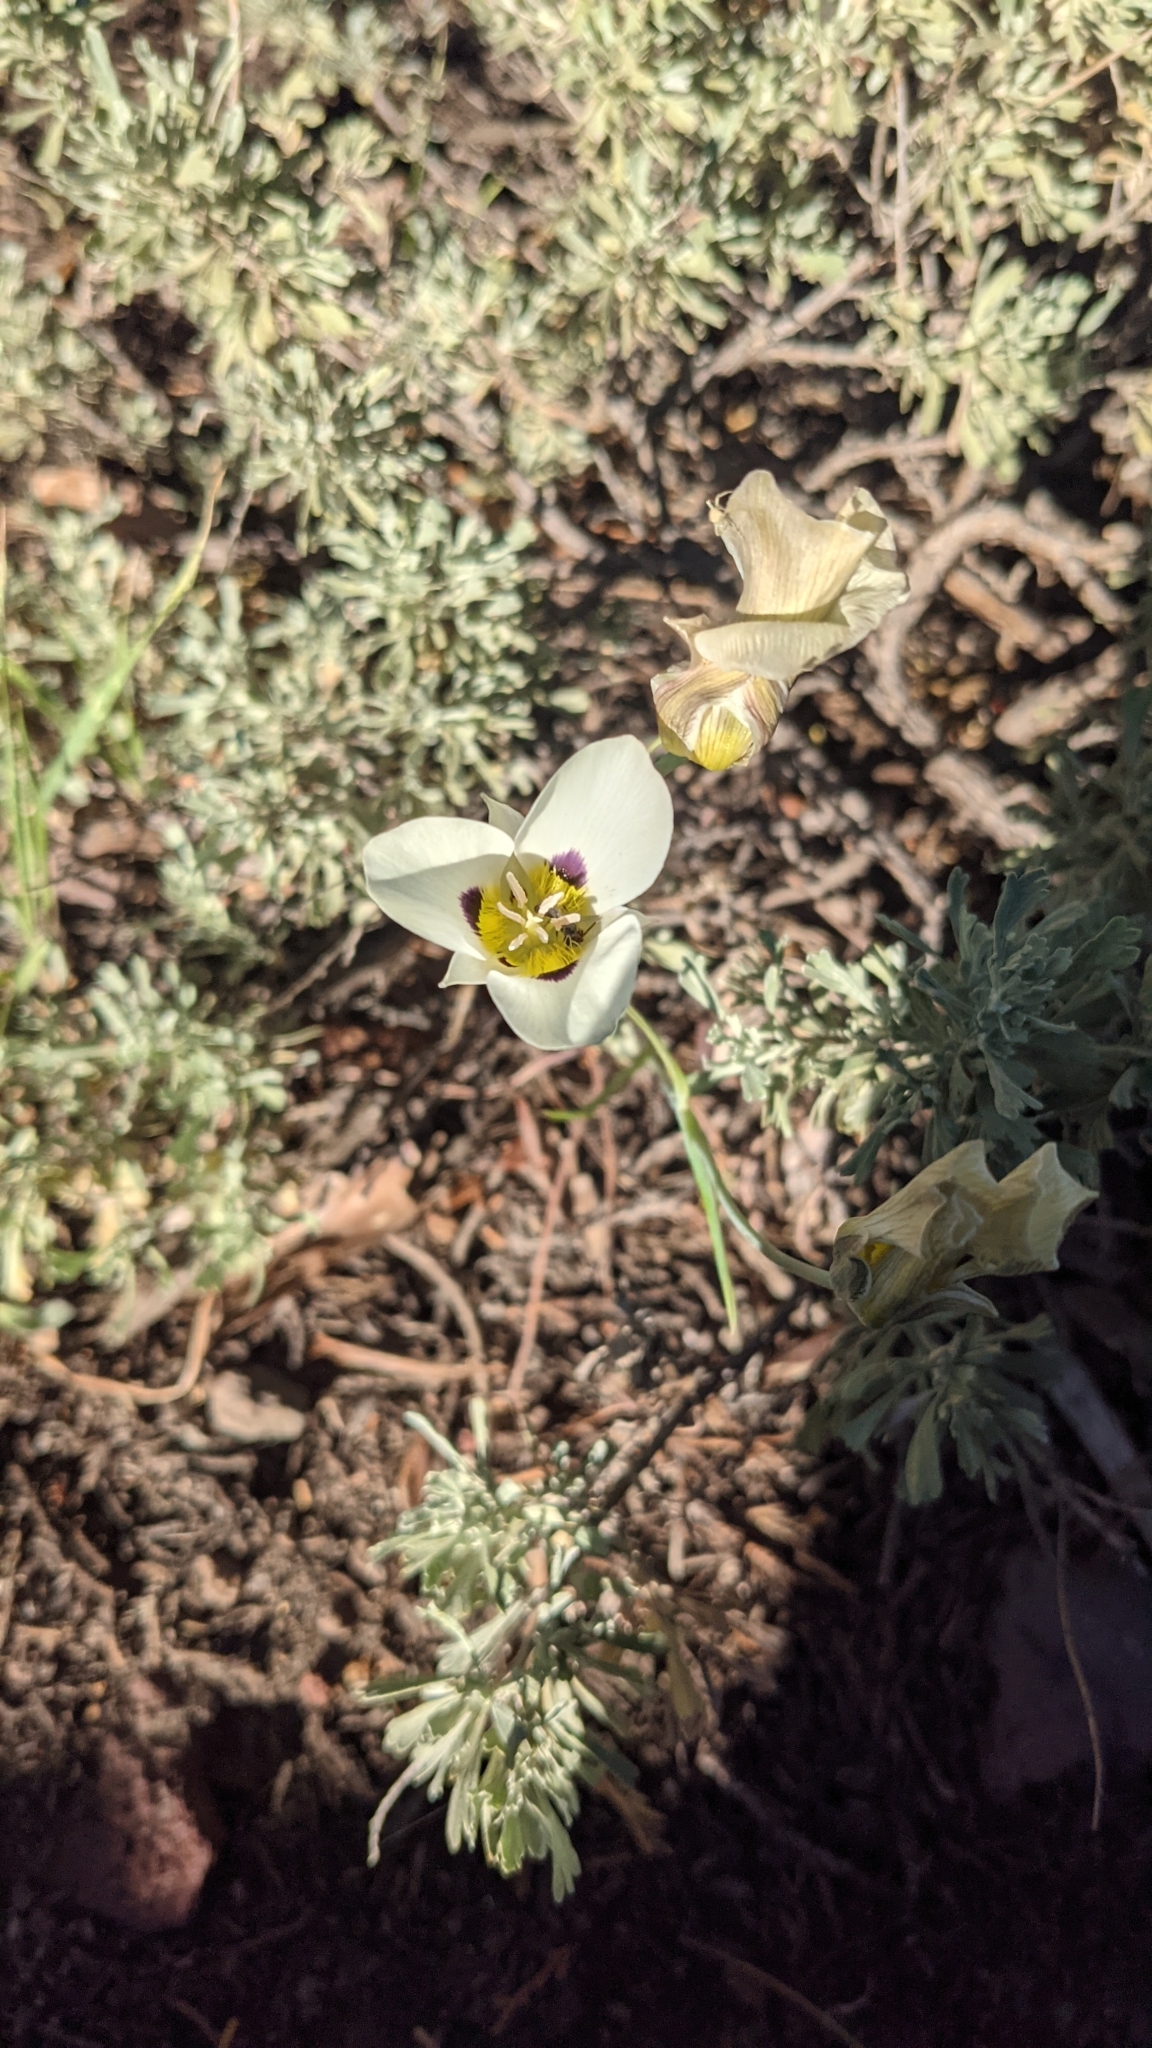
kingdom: Plantae
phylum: Tracheophyta
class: Liliopsida
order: Liliales
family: Liliaceae
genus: Calochortus
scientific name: Calochortus leichtlinii
